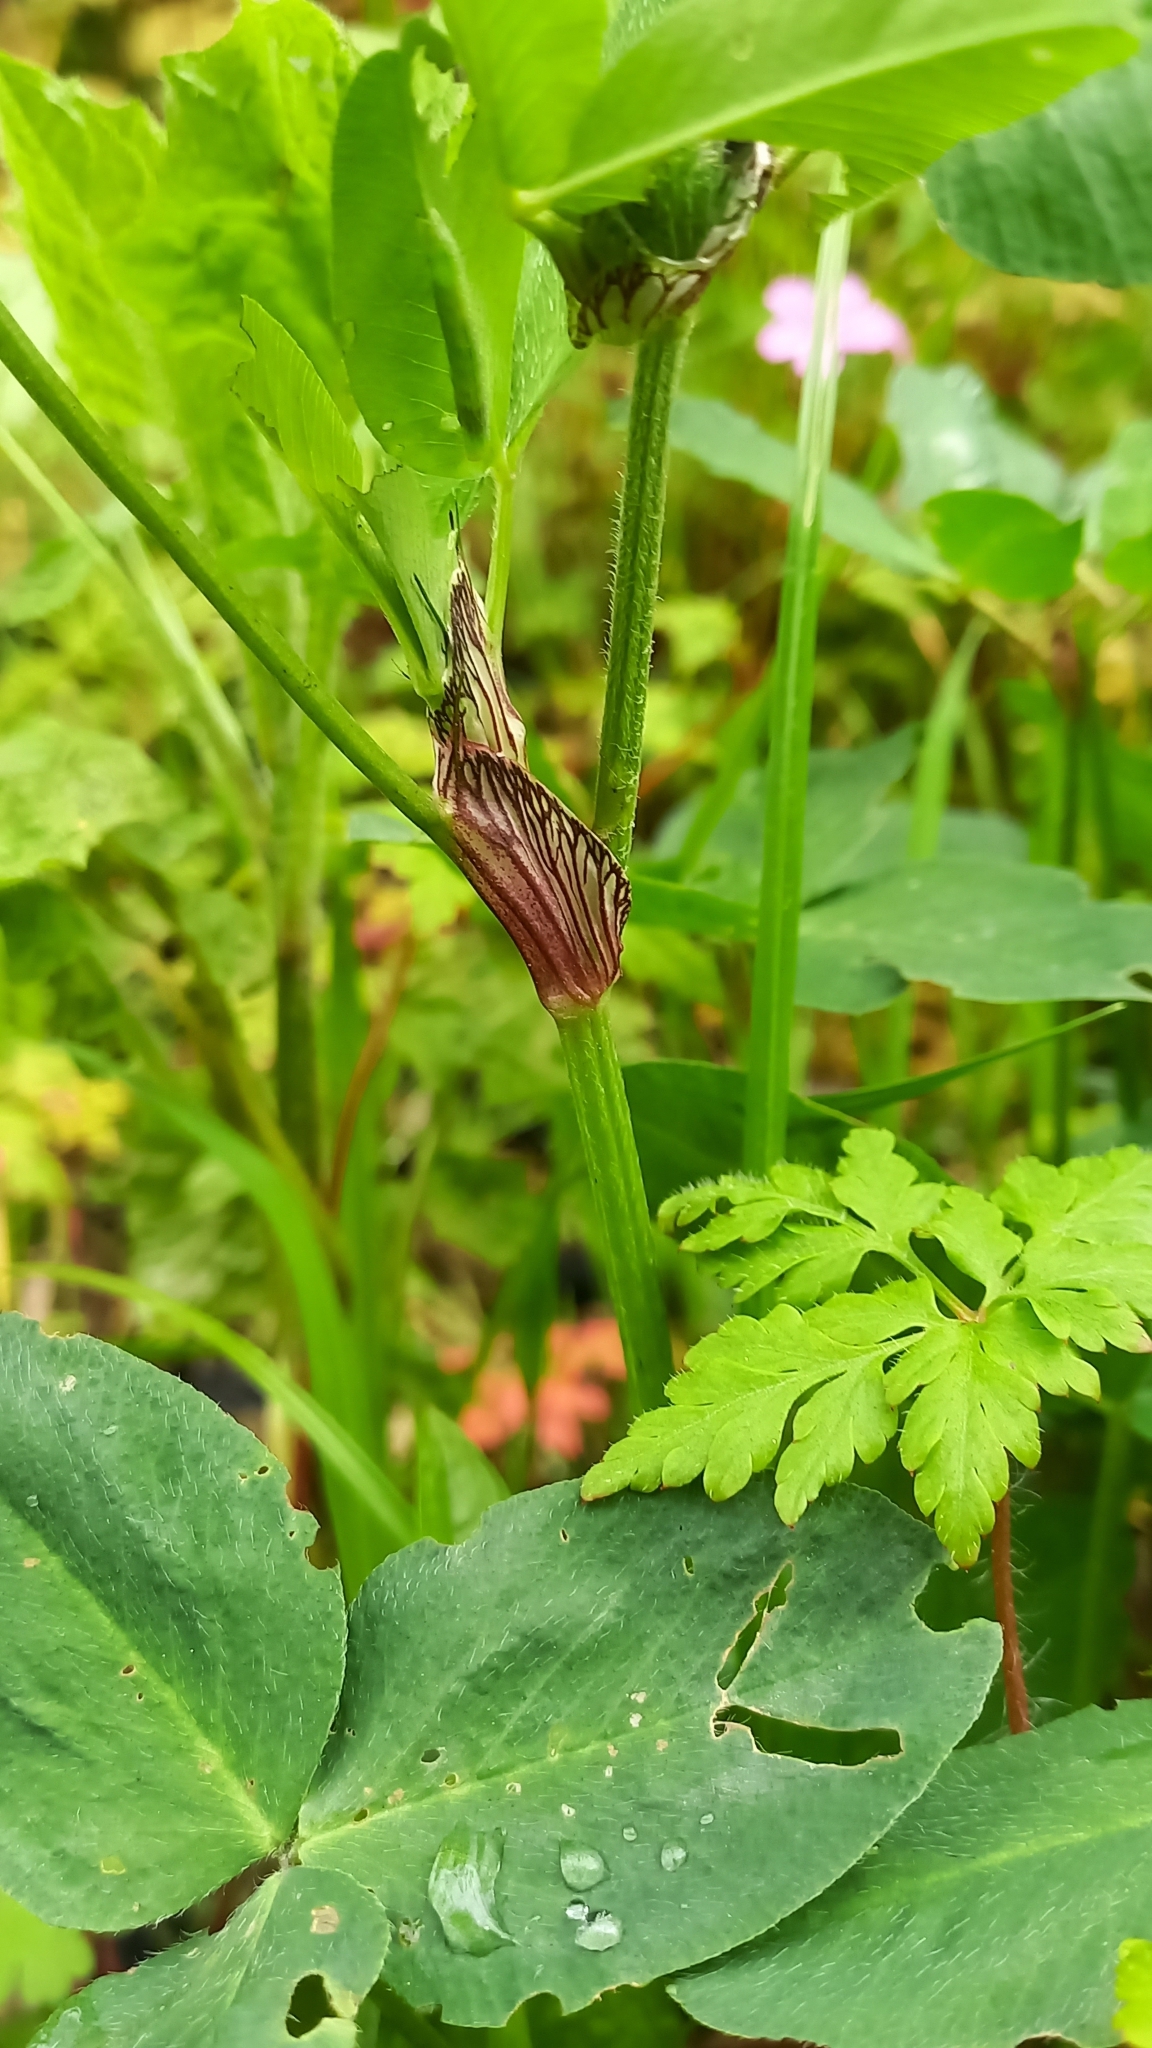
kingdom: Plantae
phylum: Tracheophyta
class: Magnoliopsida
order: Fabales
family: Fabaceae
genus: Trifolium
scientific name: Trifolium pratense
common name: Red clover
